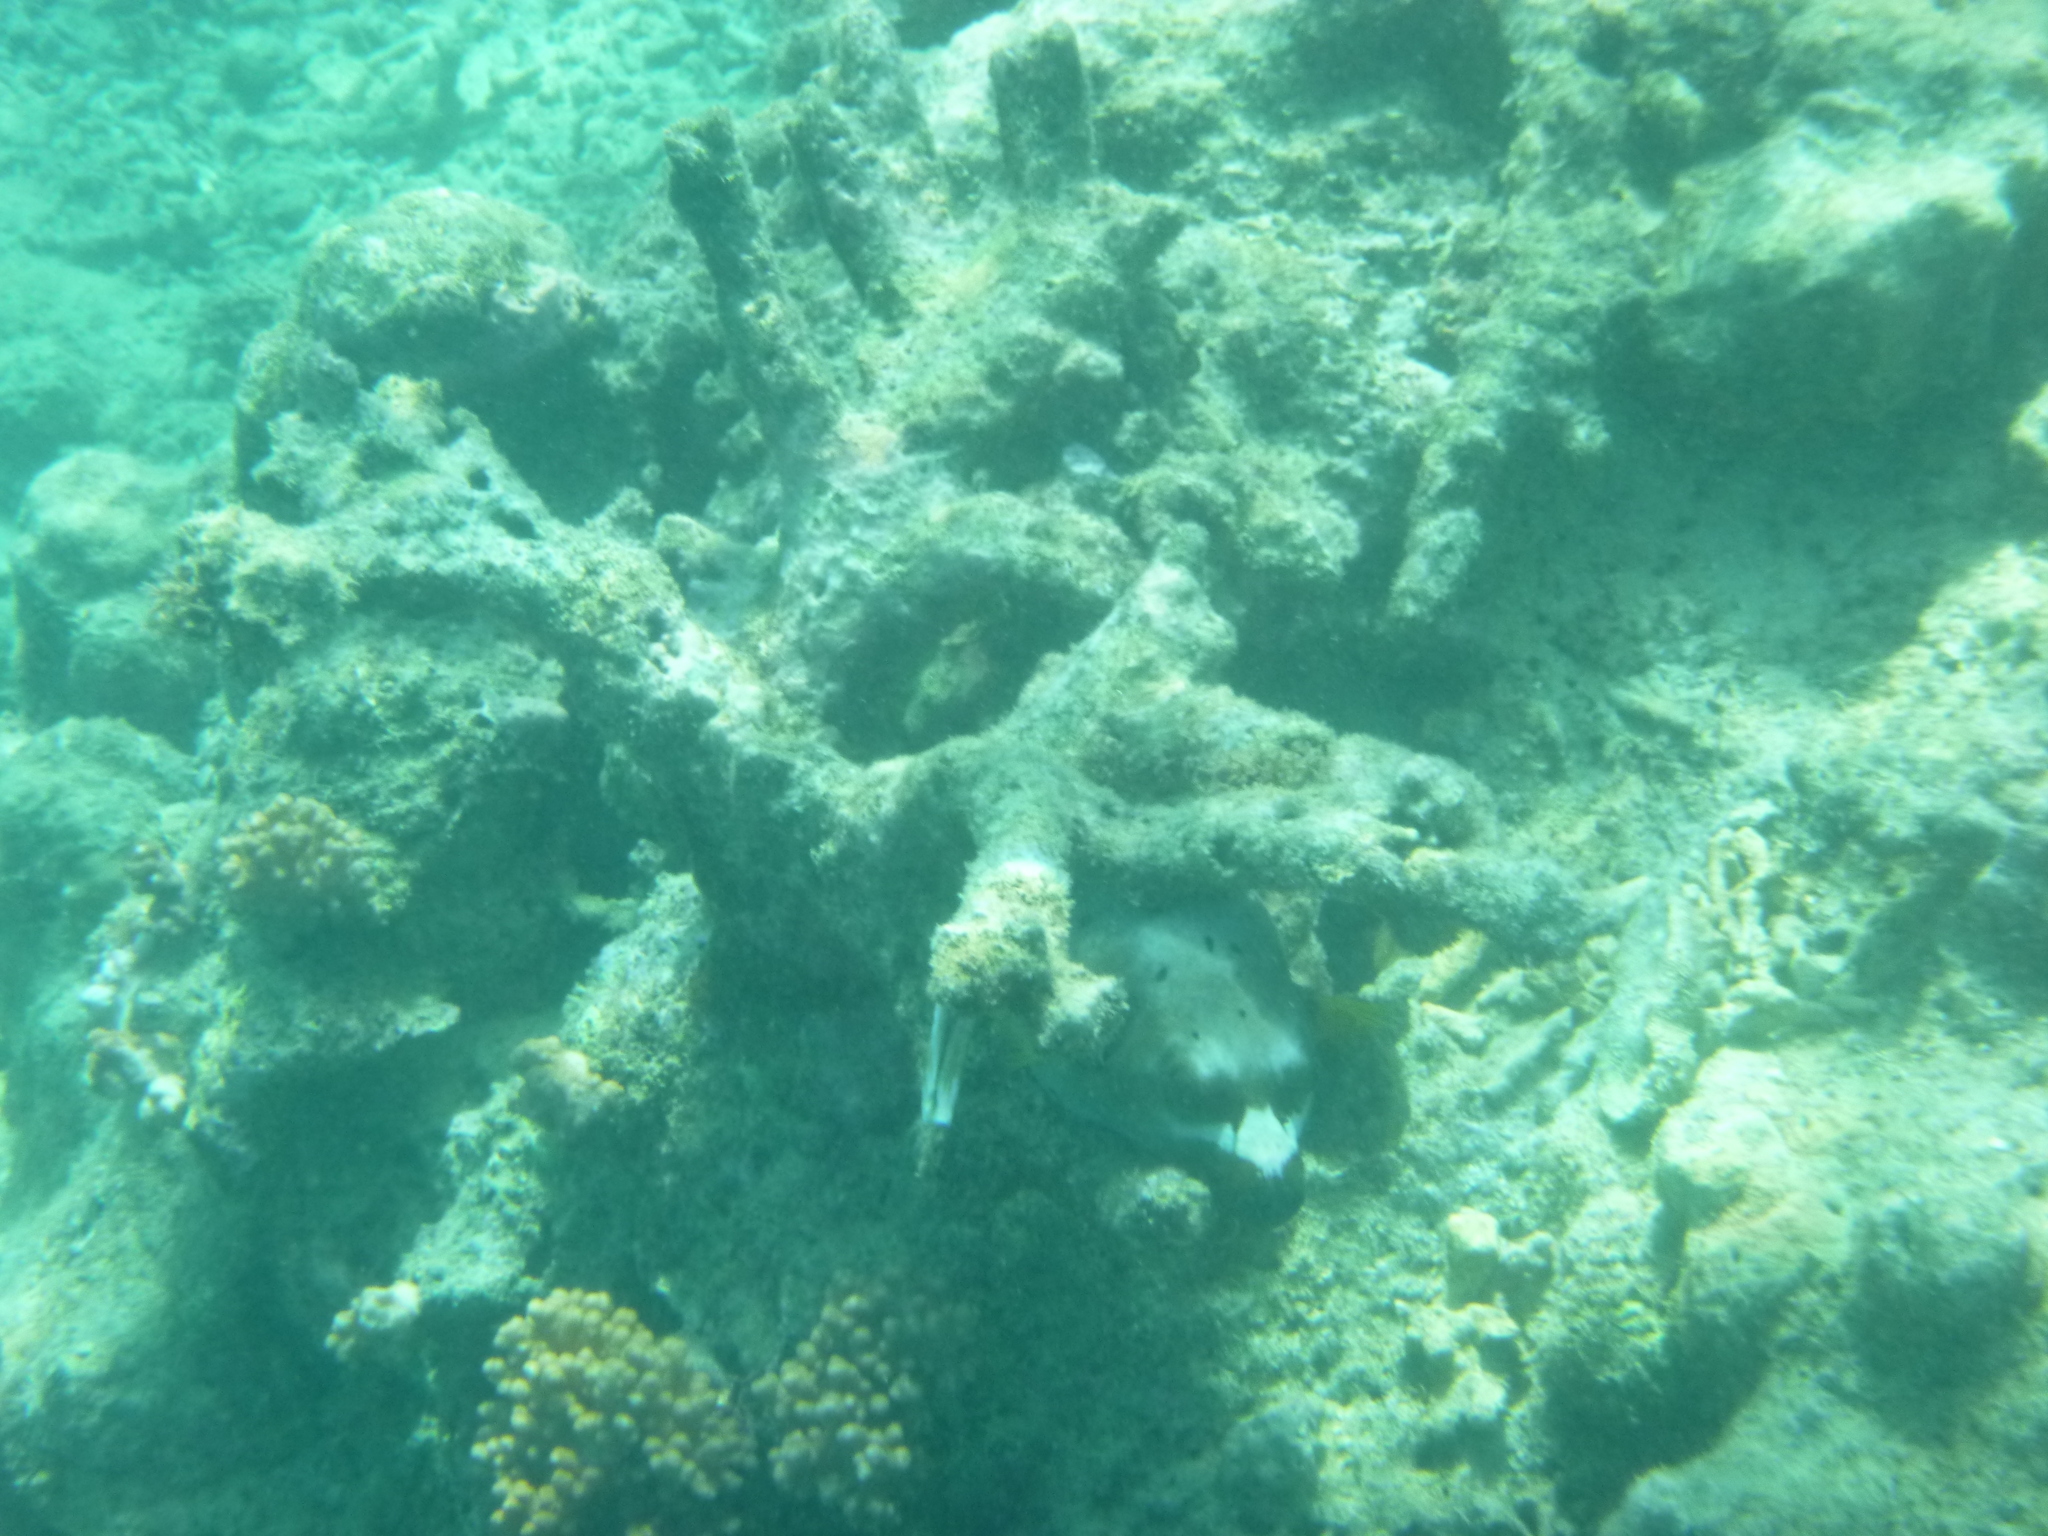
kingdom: Animalia
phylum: Chordata
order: Tetraodontiformes
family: Tetraodontidae
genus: Arothron
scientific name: Arothron nigropunctatus
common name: Black spotted blow fish
